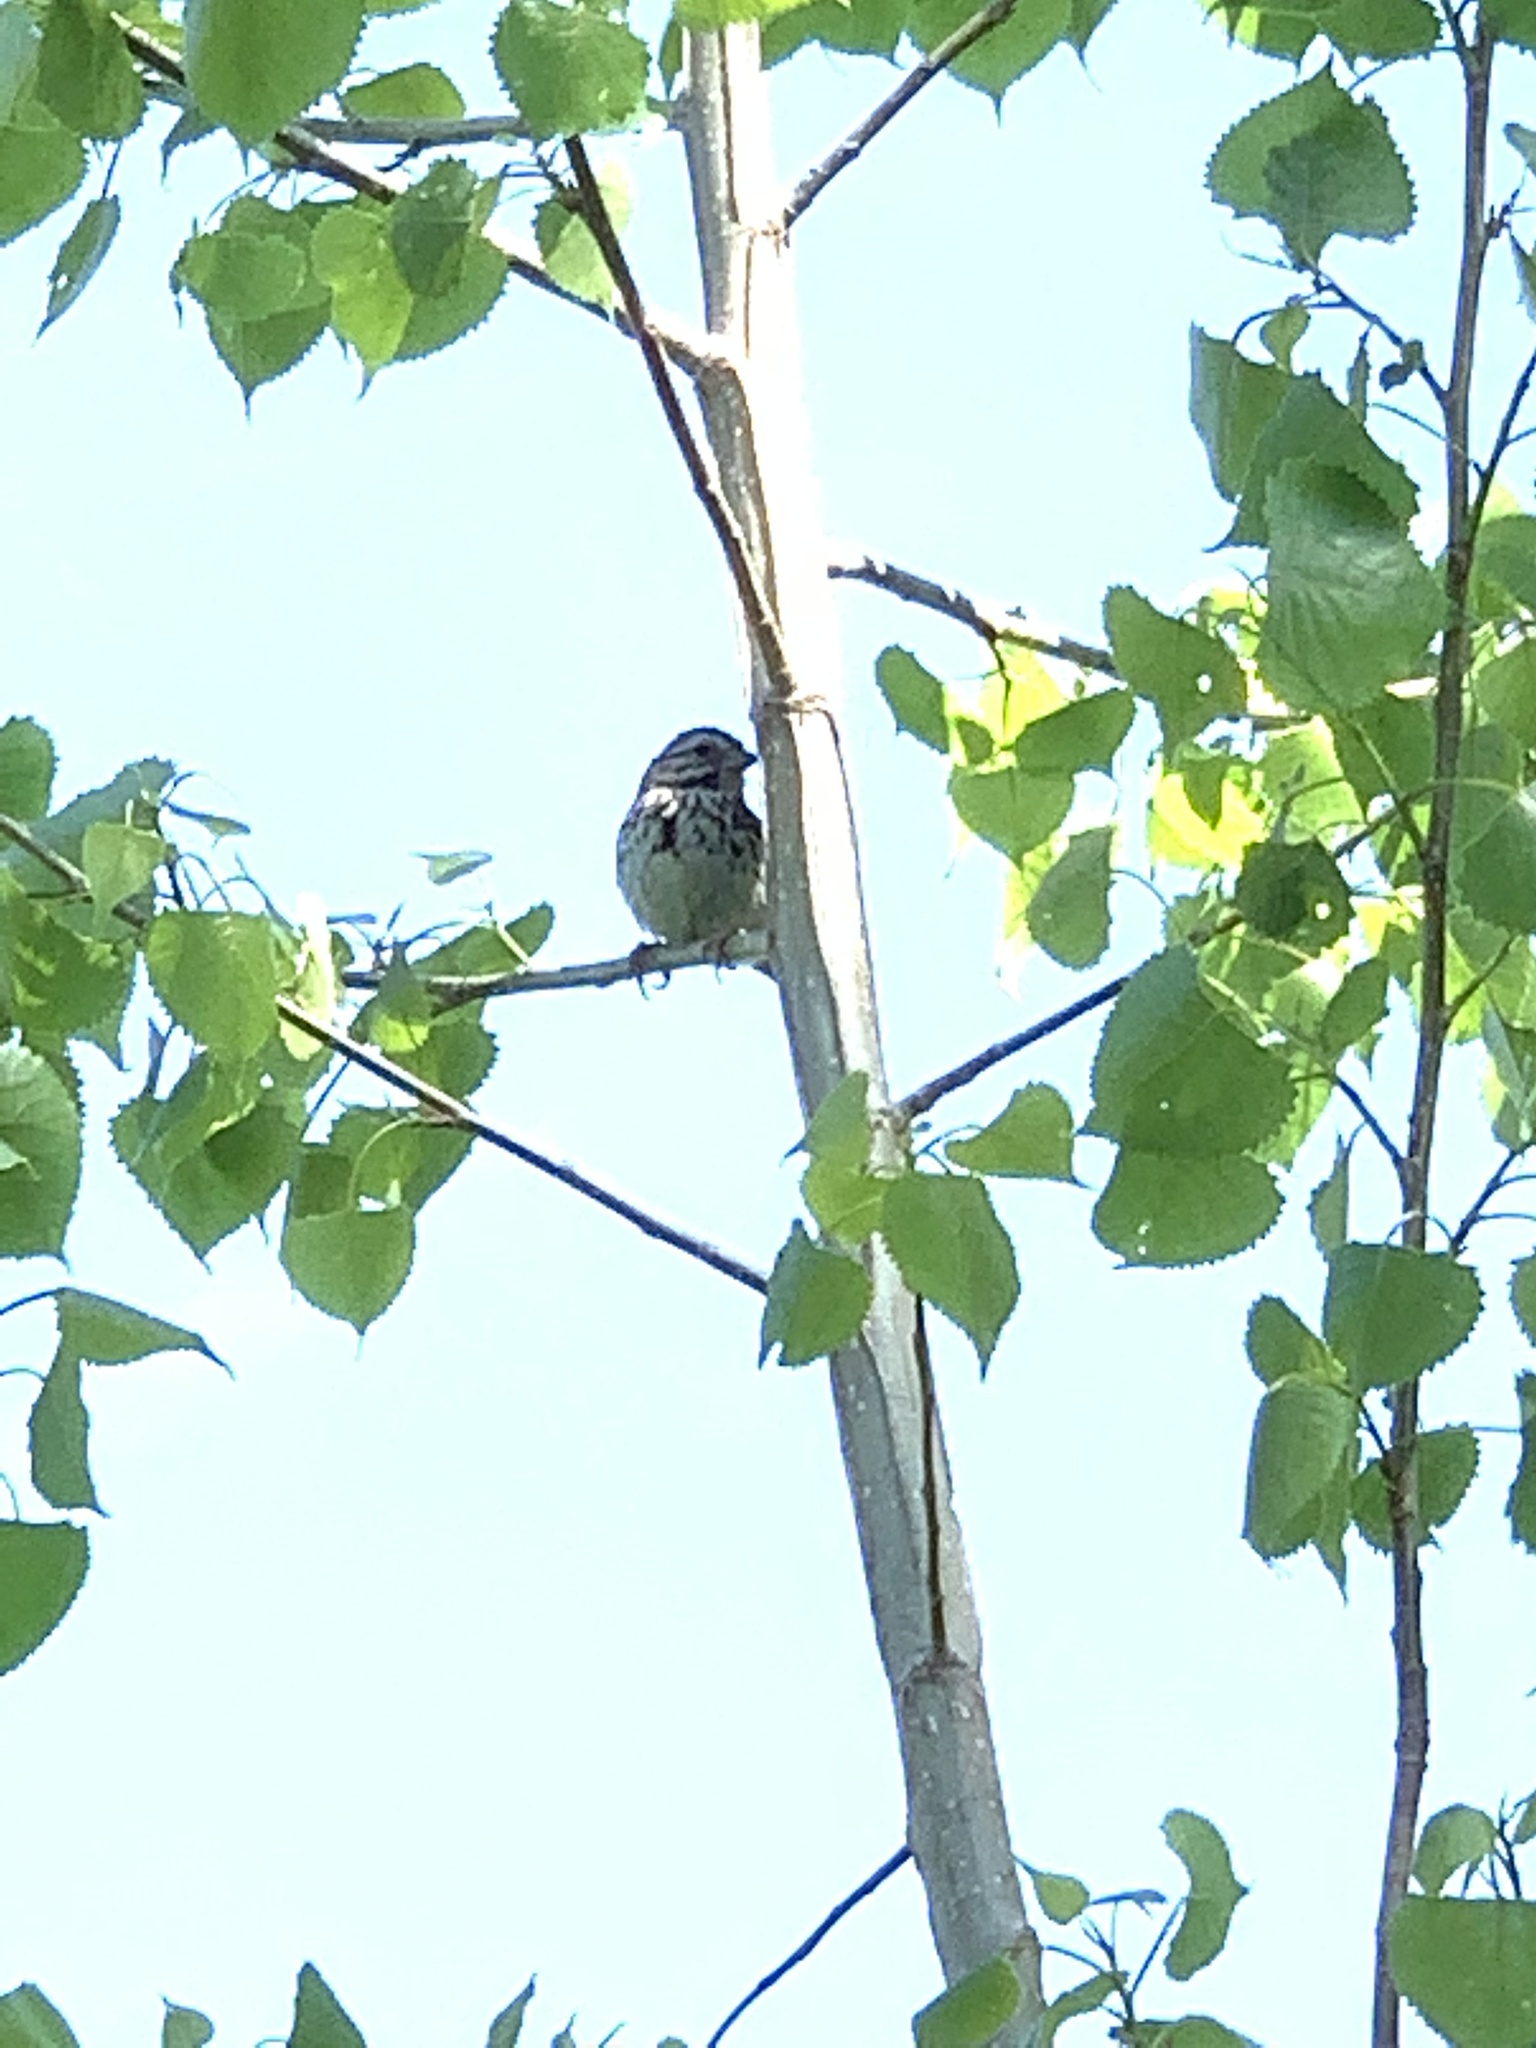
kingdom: Animalia
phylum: Chordata
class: Aves
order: Passeriformes
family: Passerellidae
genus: Melospiza
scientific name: Melospiza melodia
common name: Song sparrow
